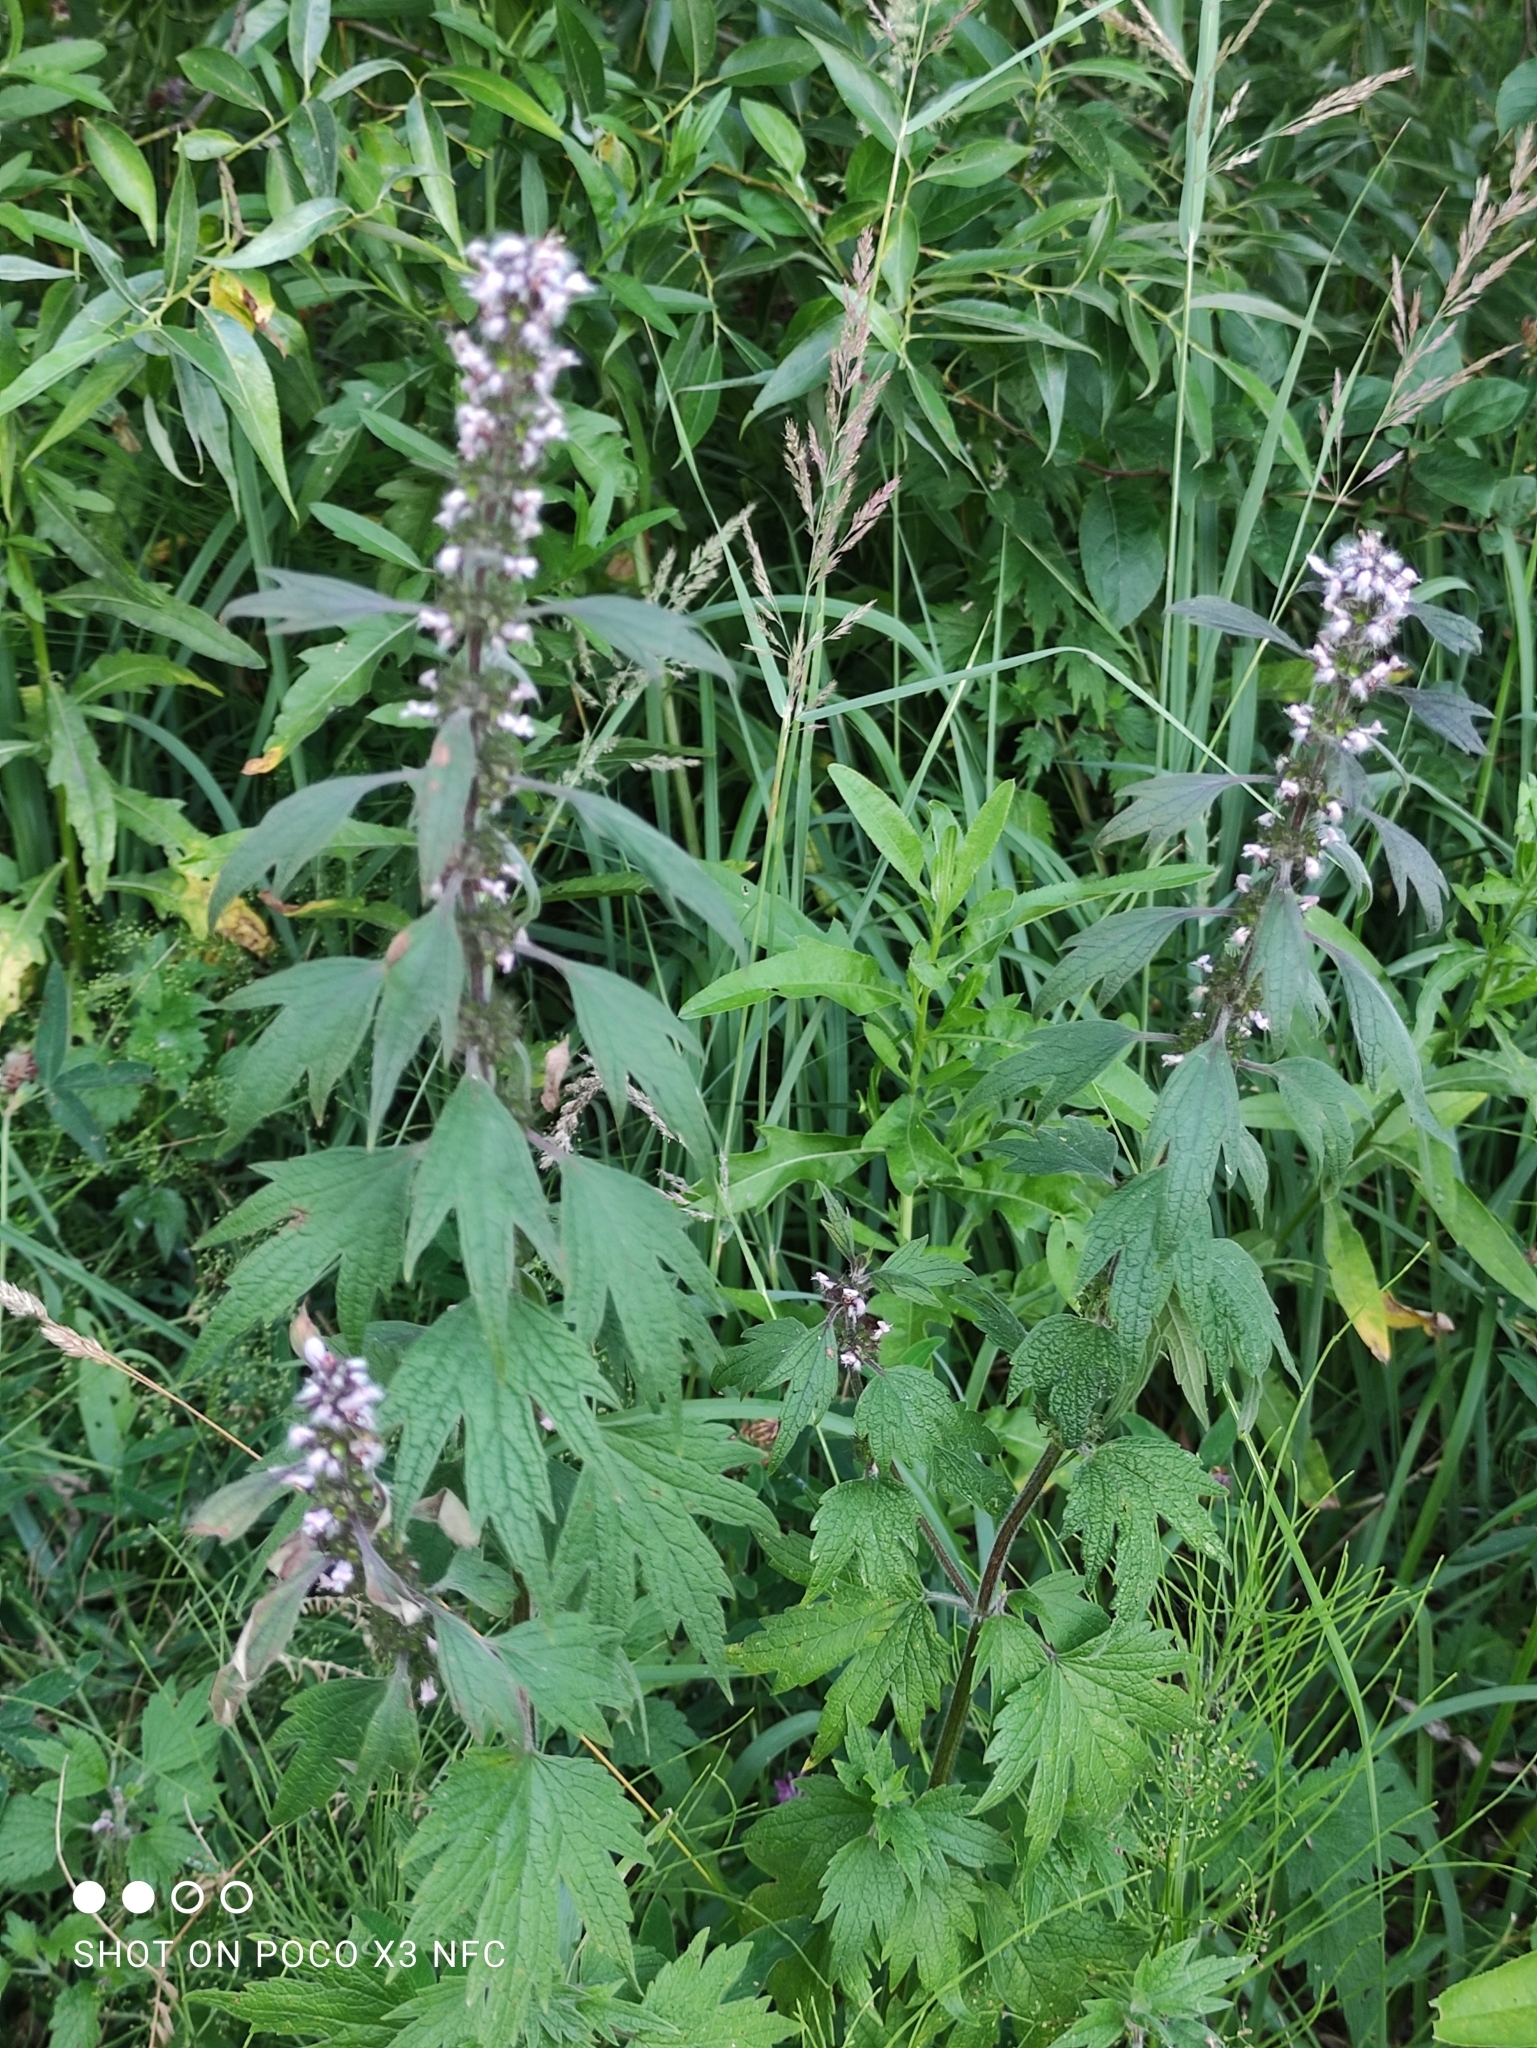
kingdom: Plantae
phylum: Tracheophyta
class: Magnoliopsida
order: Lamiales
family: Lamiaceae
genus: Leonurus
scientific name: Leonurus quinquelobatus
